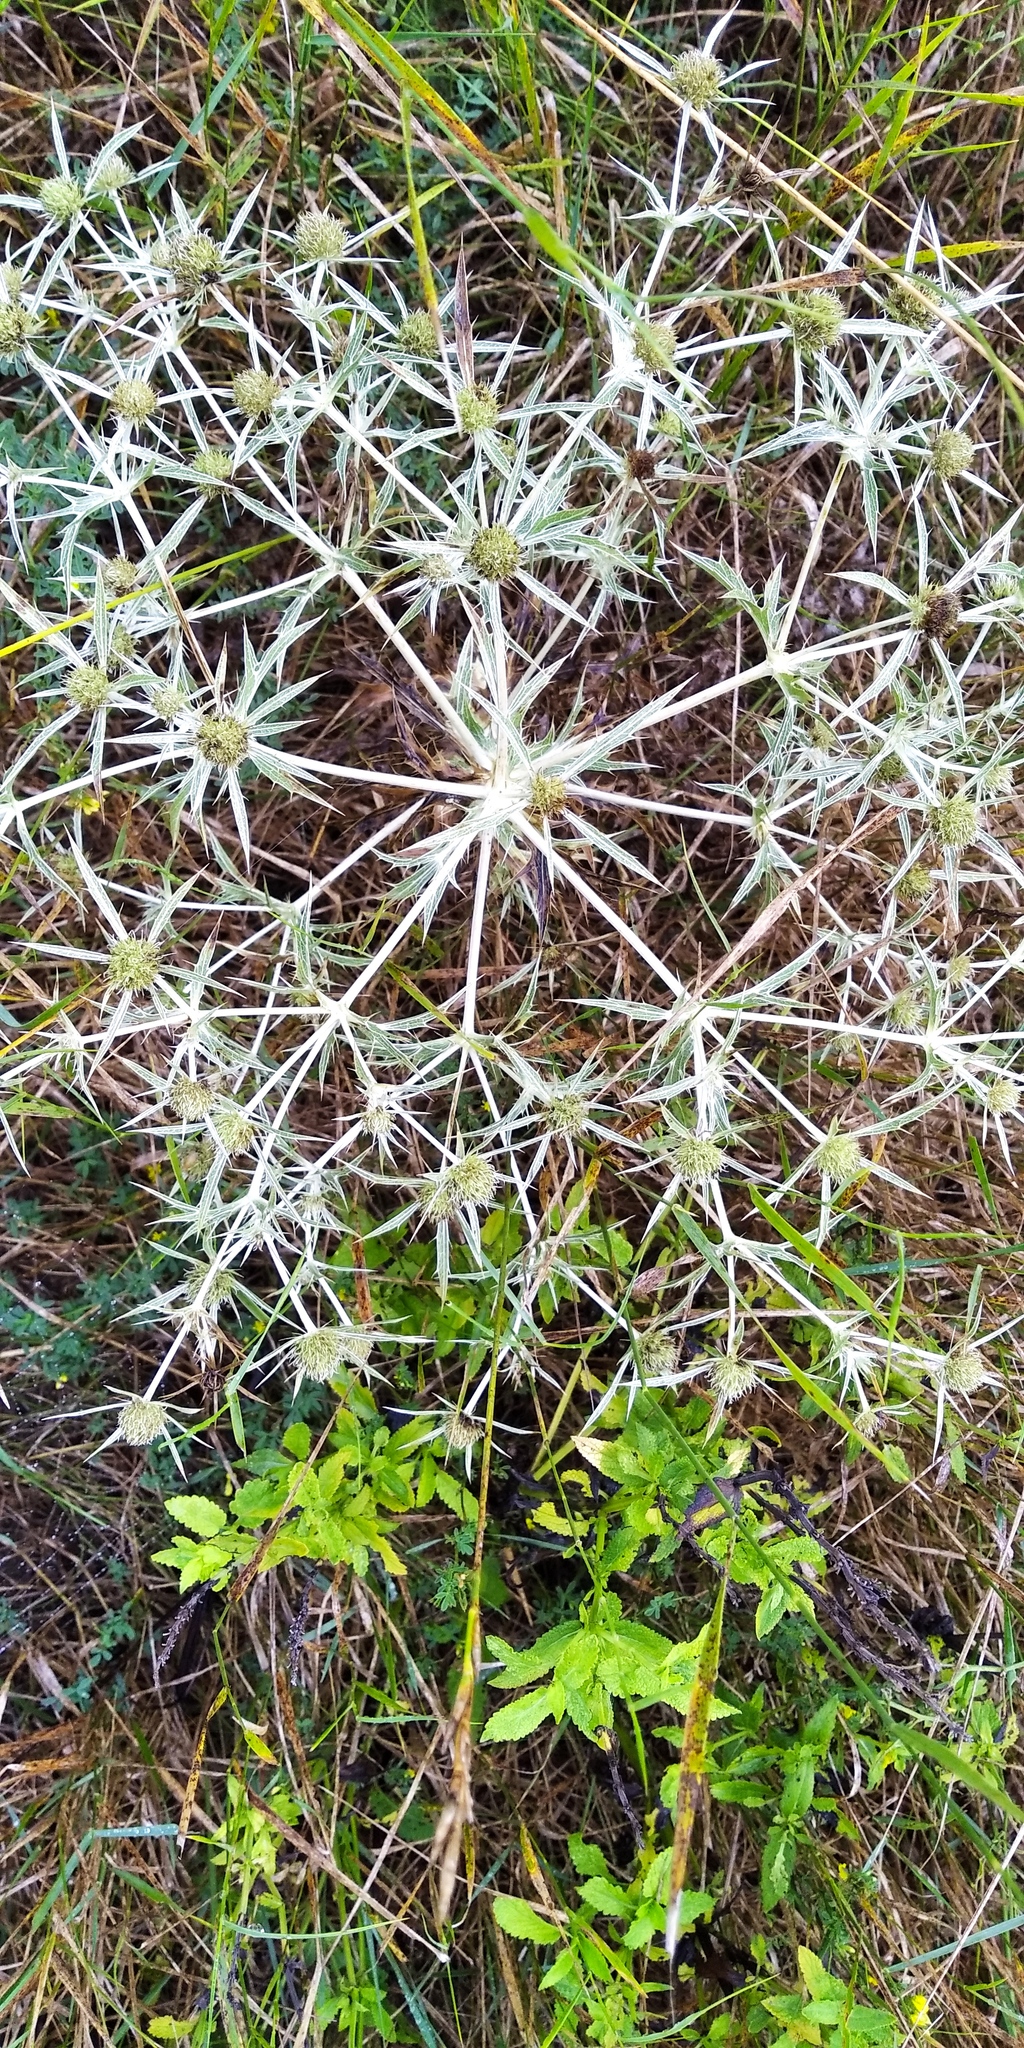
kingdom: Plantae
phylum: Tracheophyta
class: Magnoliopsida
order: Apiales
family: Apiaceae
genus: Eryngium
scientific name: Eryngium campestre
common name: Field eryngo
